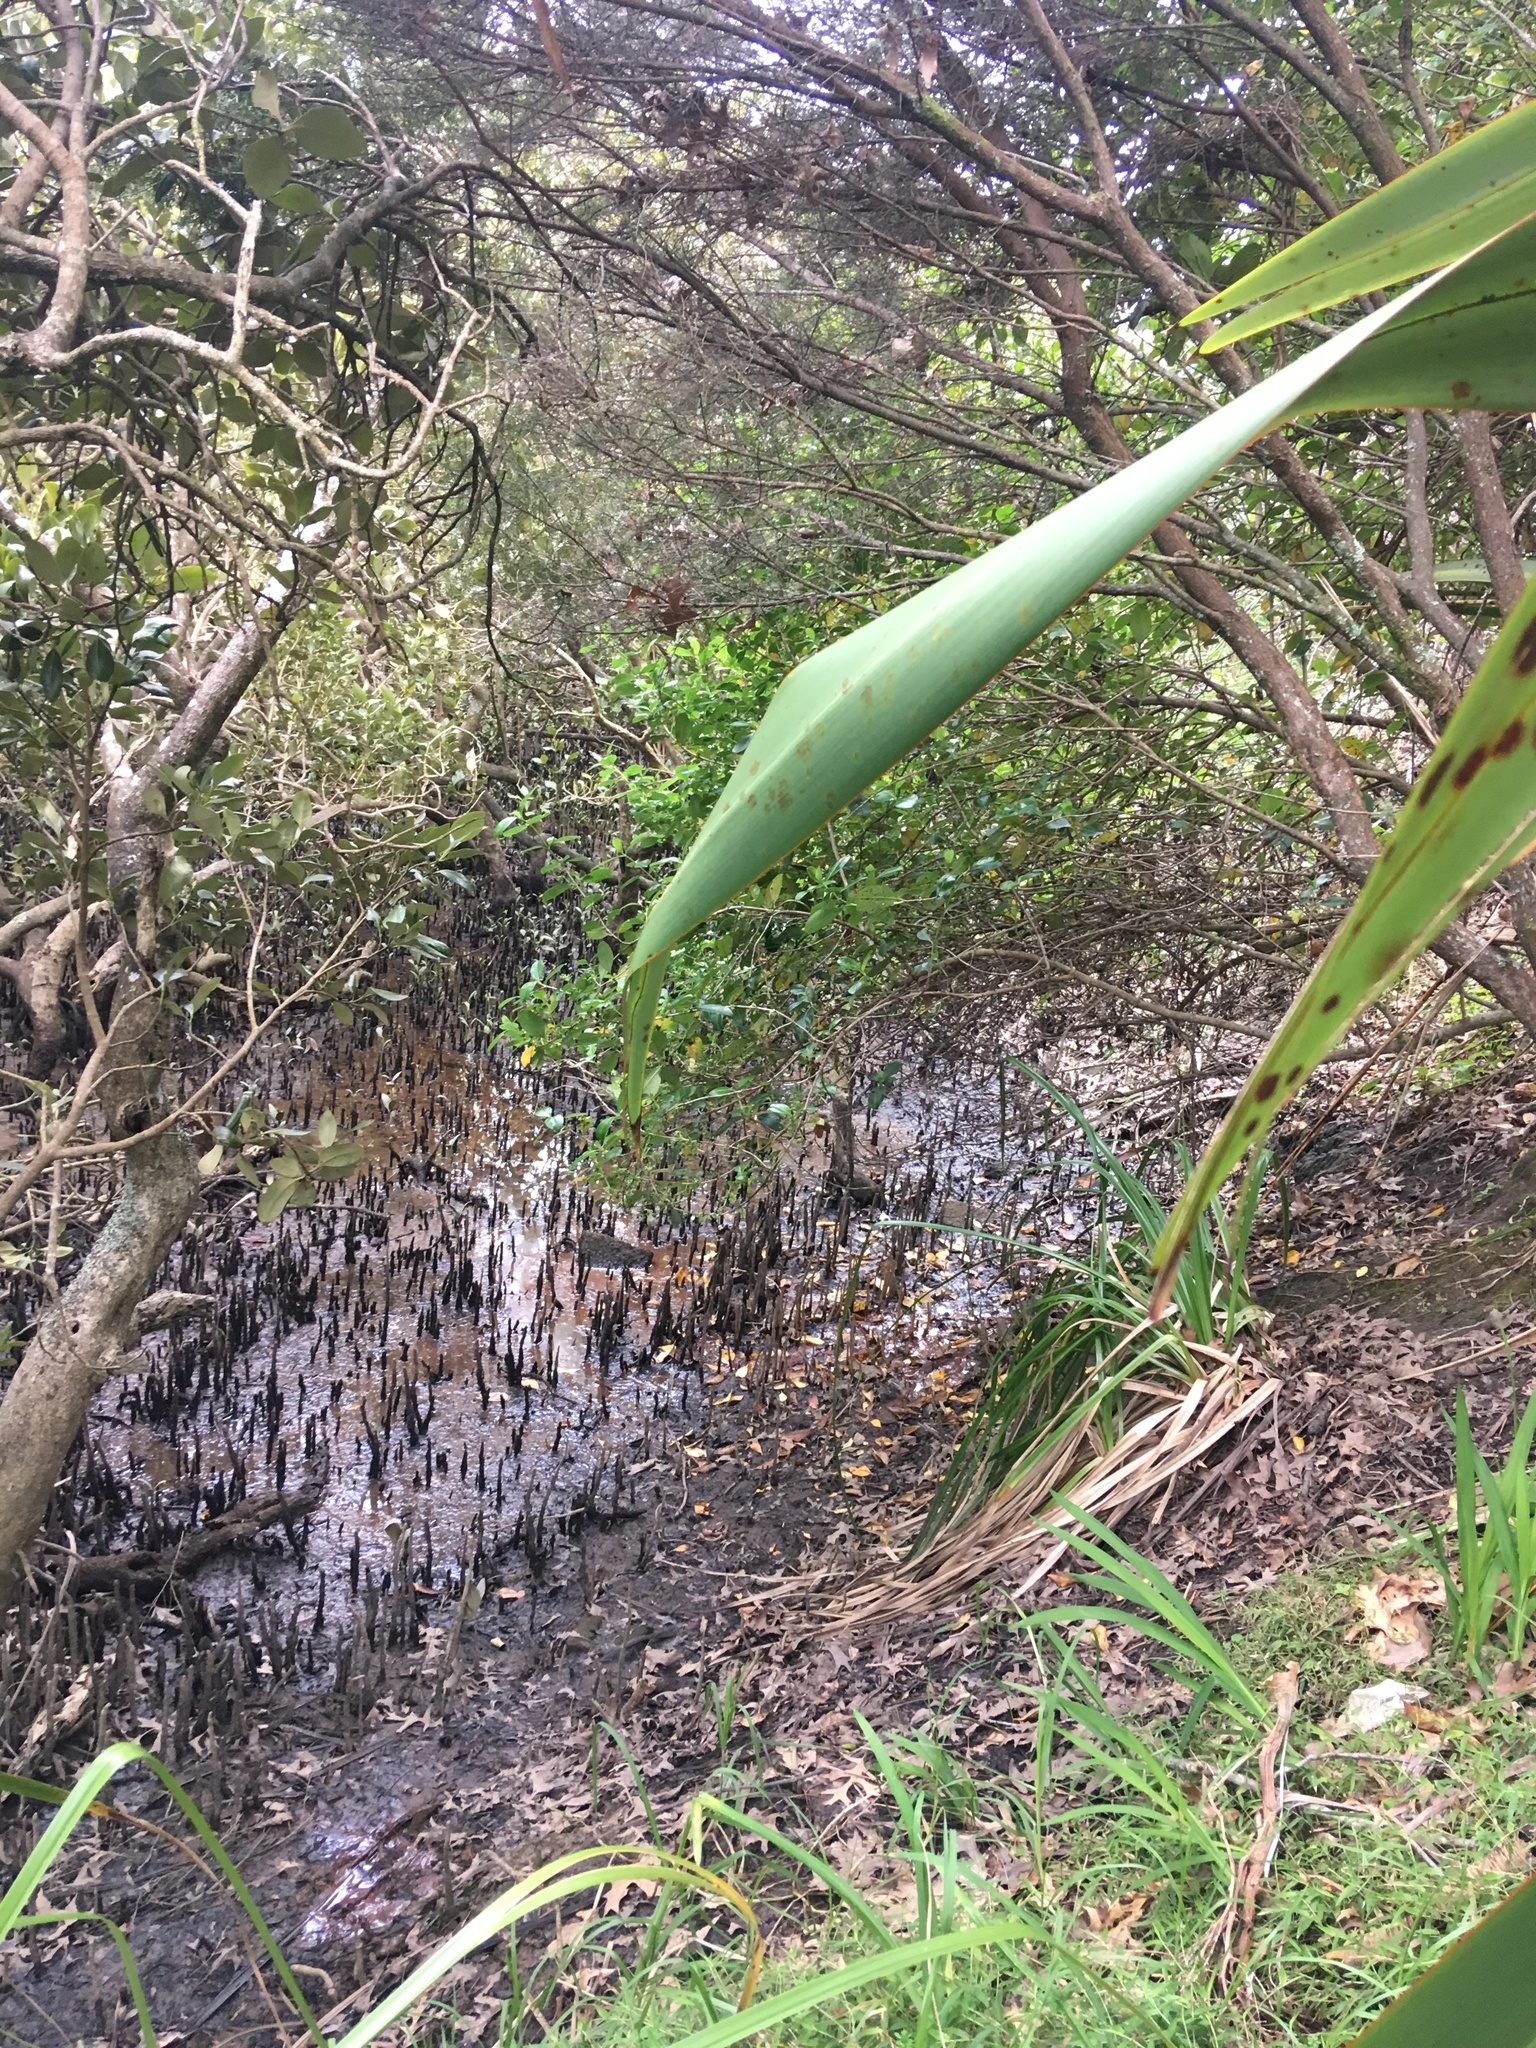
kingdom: Plantae
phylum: Tracheophyta
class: Liliopsida
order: Asparagales
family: Iridaceae
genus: Crocosmia
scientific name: Crocosmia crocosmiiflora
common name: Montbretia
